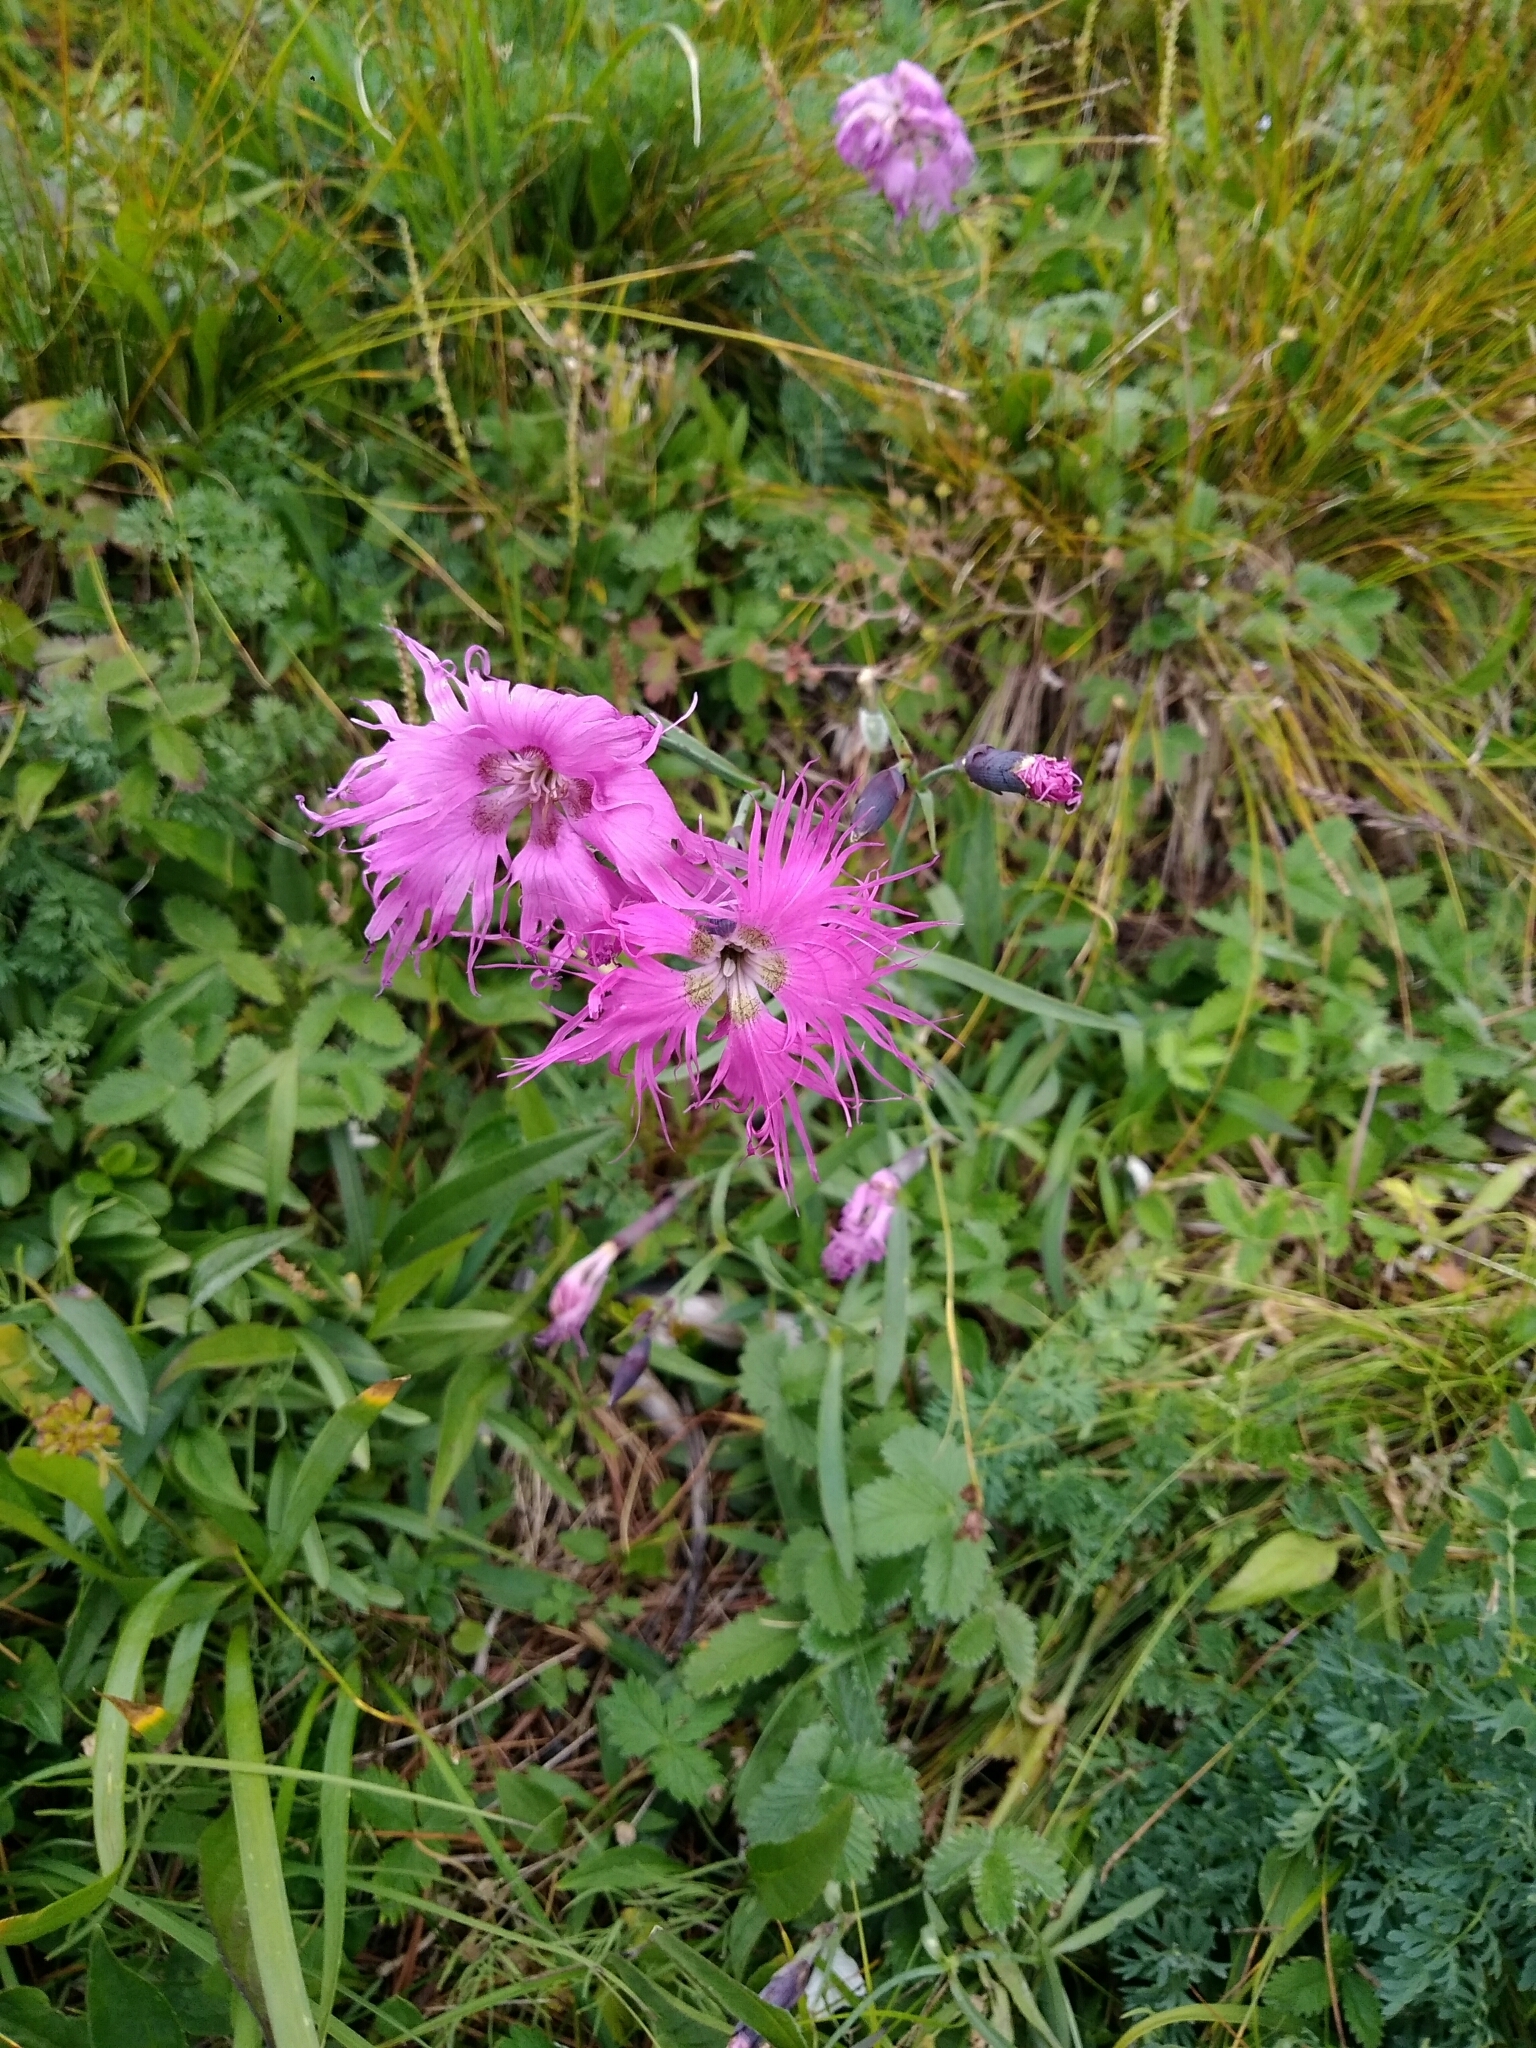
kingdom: Plantae
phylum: Tracheophyta
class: Magnoliopsida
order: Caryophyllales
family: Caryophyllaceae
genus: Dianthus
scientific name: Dianthus superbus
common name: Fringed pink
